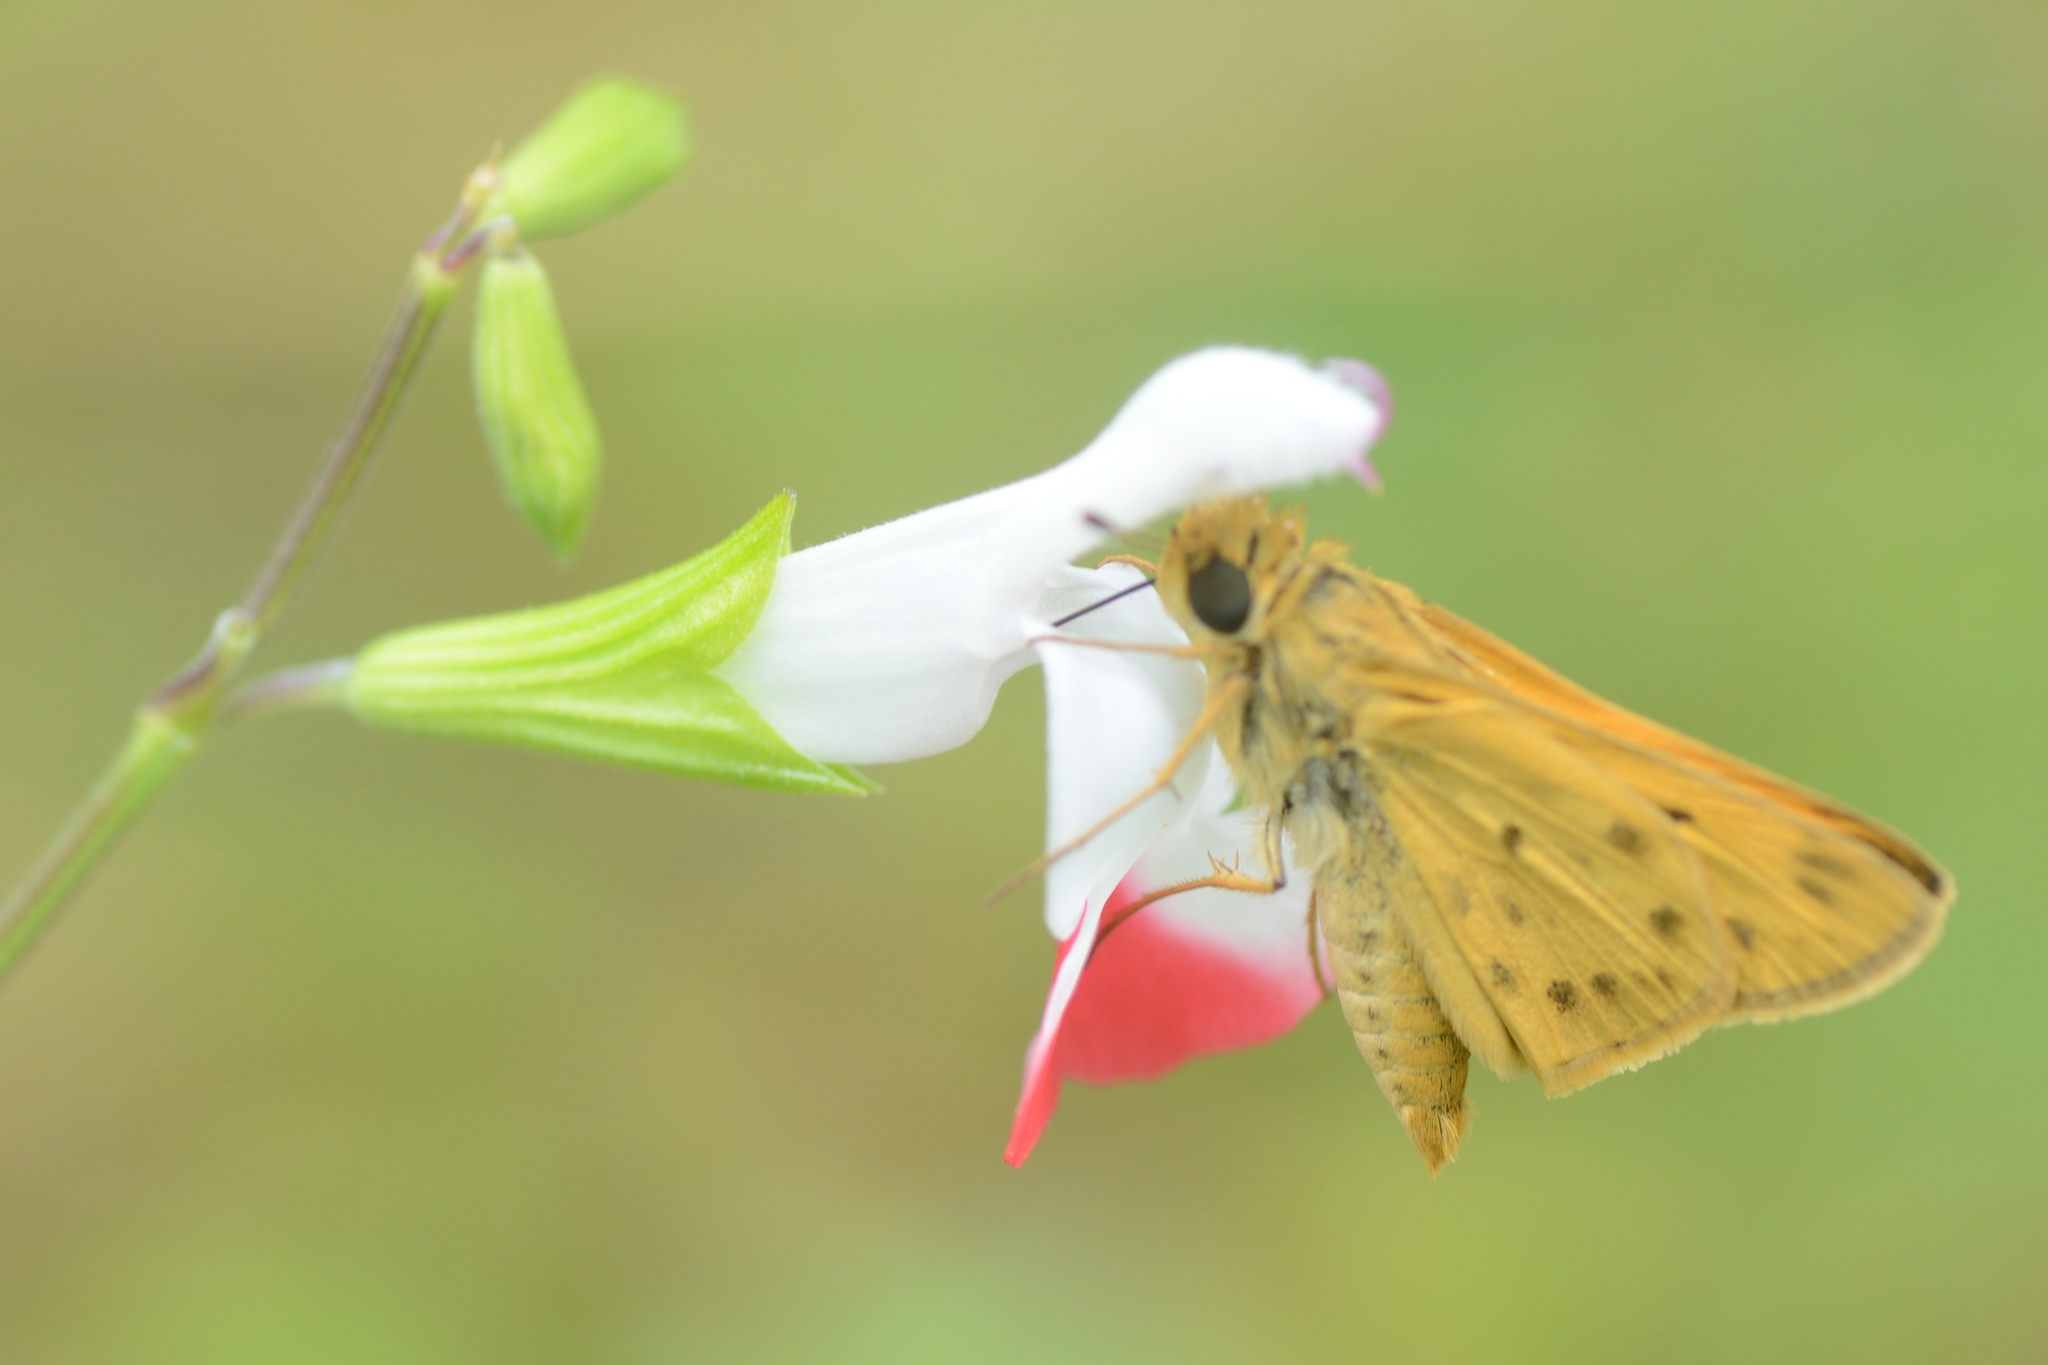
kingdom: Animalia
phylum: Arthropoda
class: Insecta
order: Lepidoptera
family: Hesperiidae
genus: Hylephila
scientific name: Hylephila phyleus
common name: Fiery skipper
